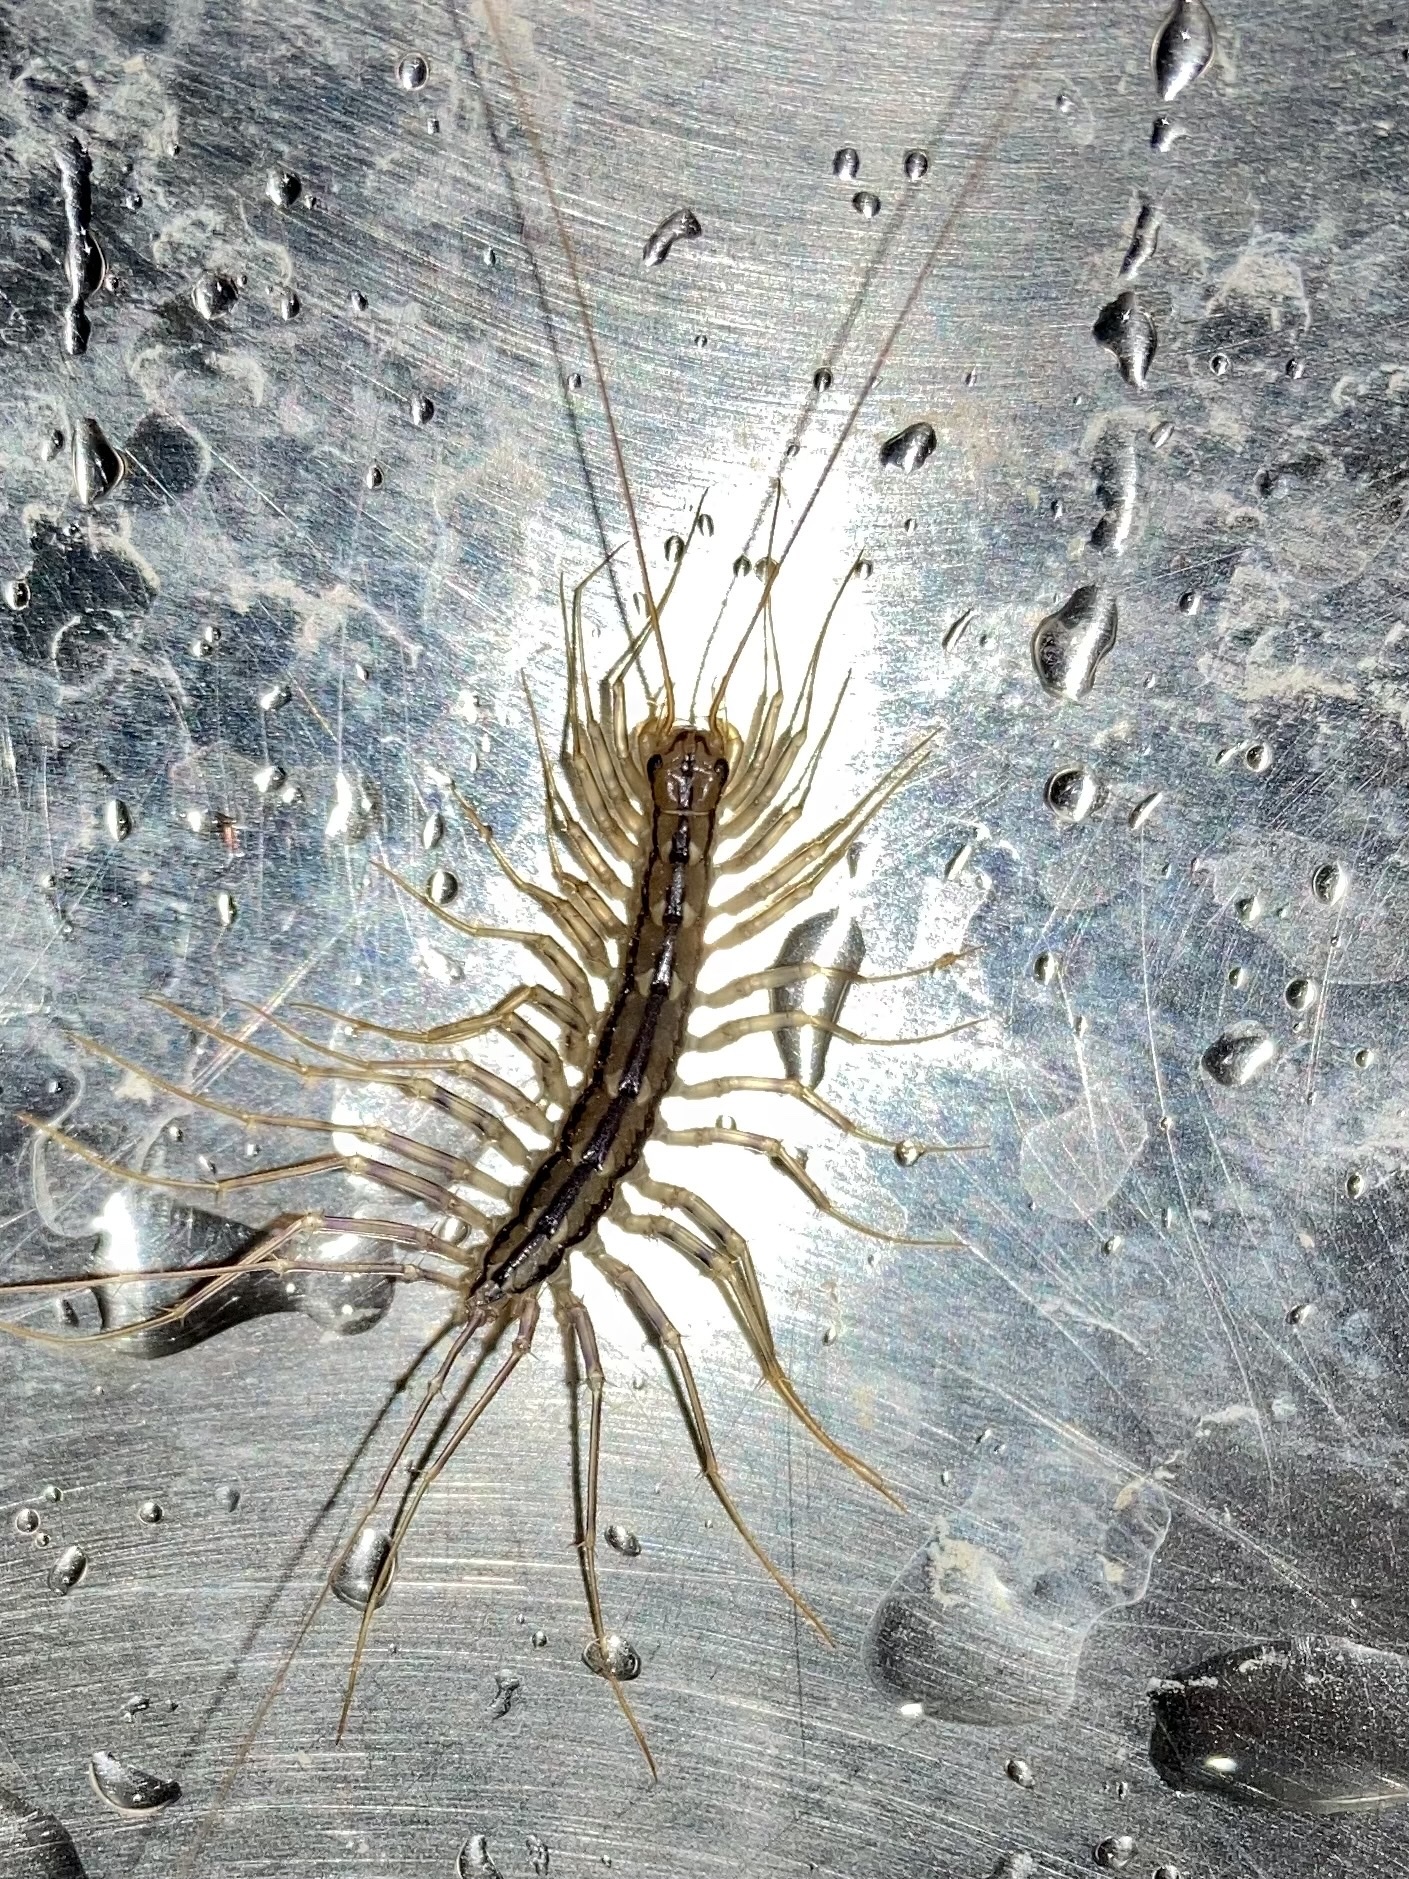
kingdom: Animalia
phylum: Arthropoda
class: Chilopoda
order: Scutigeromorpha
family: Scutigeridae
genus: Scutigera
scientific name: Scutigera coleoptrata
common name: House centipede
